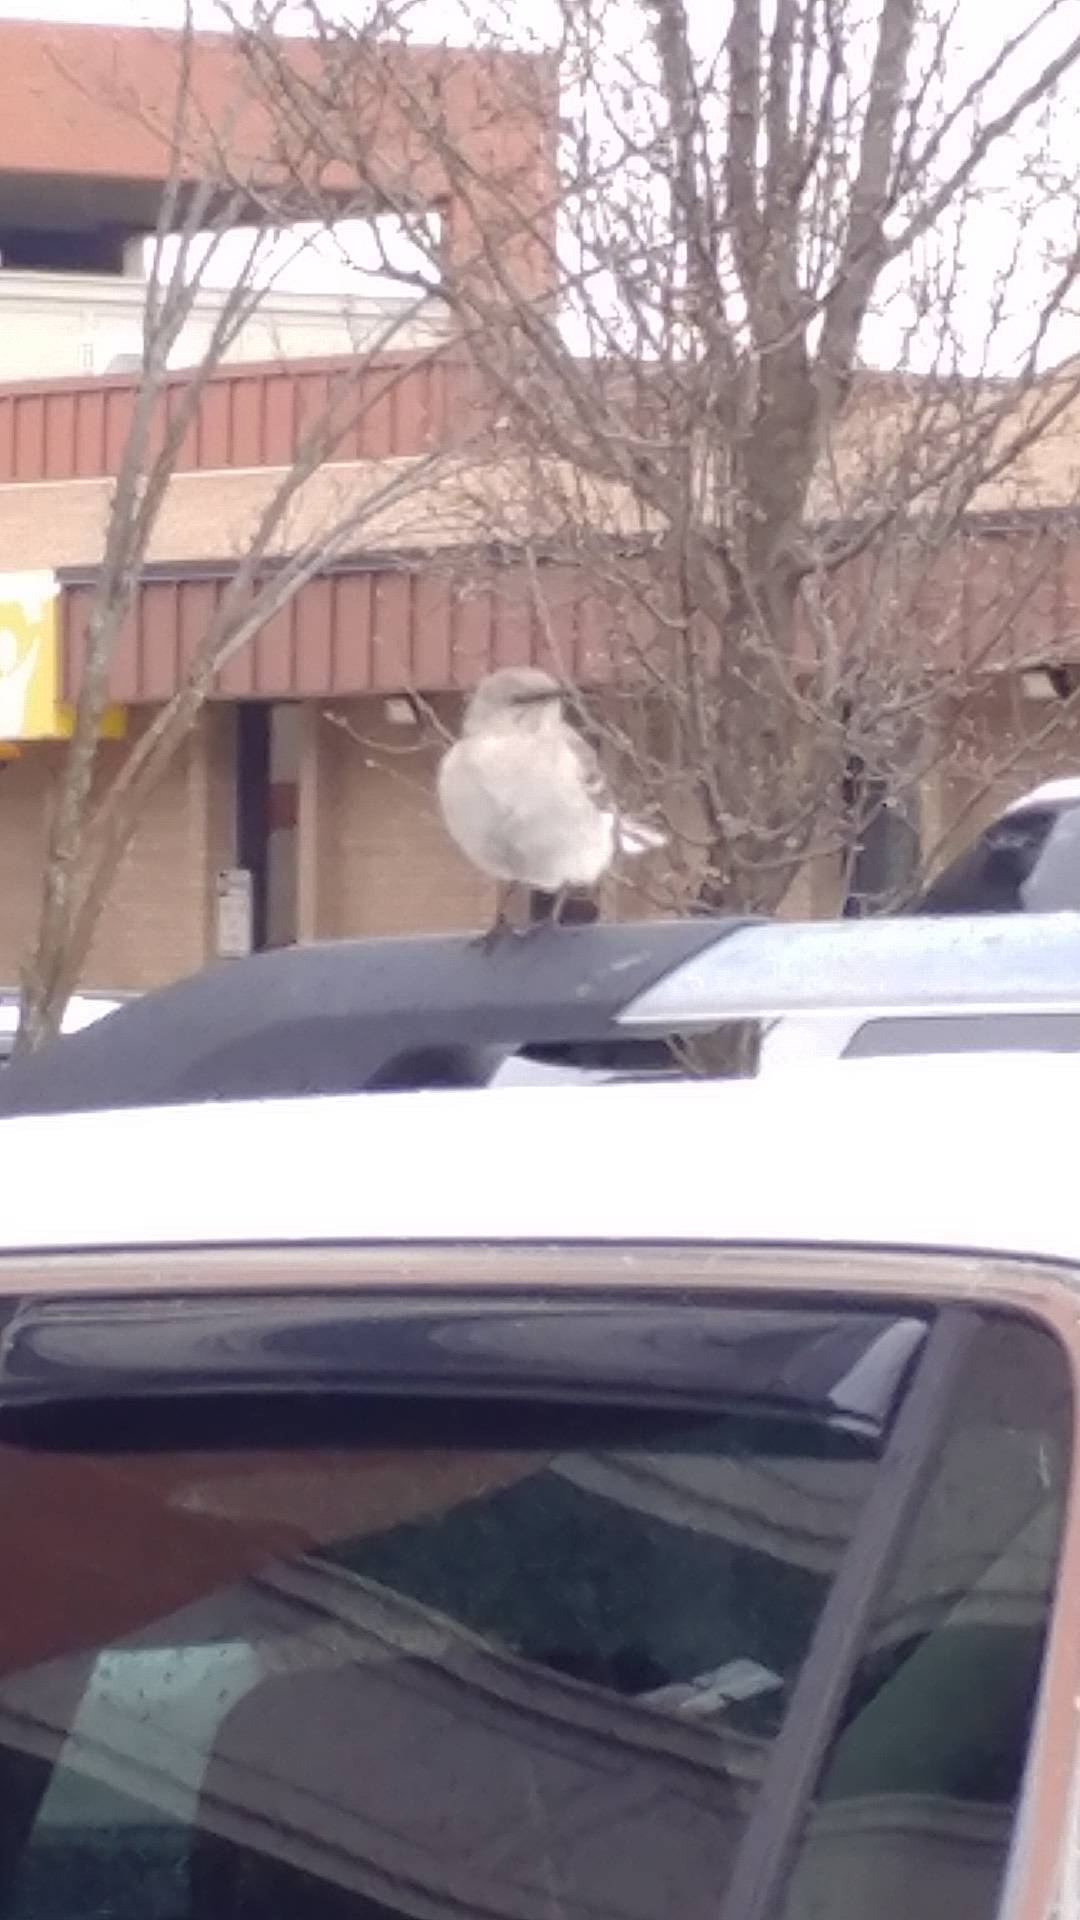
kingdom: Animalia
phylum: Chordata
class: Aves
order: Passeriformes
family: Mimidae
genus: Mimus
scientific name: Mimus polyglottos
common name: Northern mockingbird
